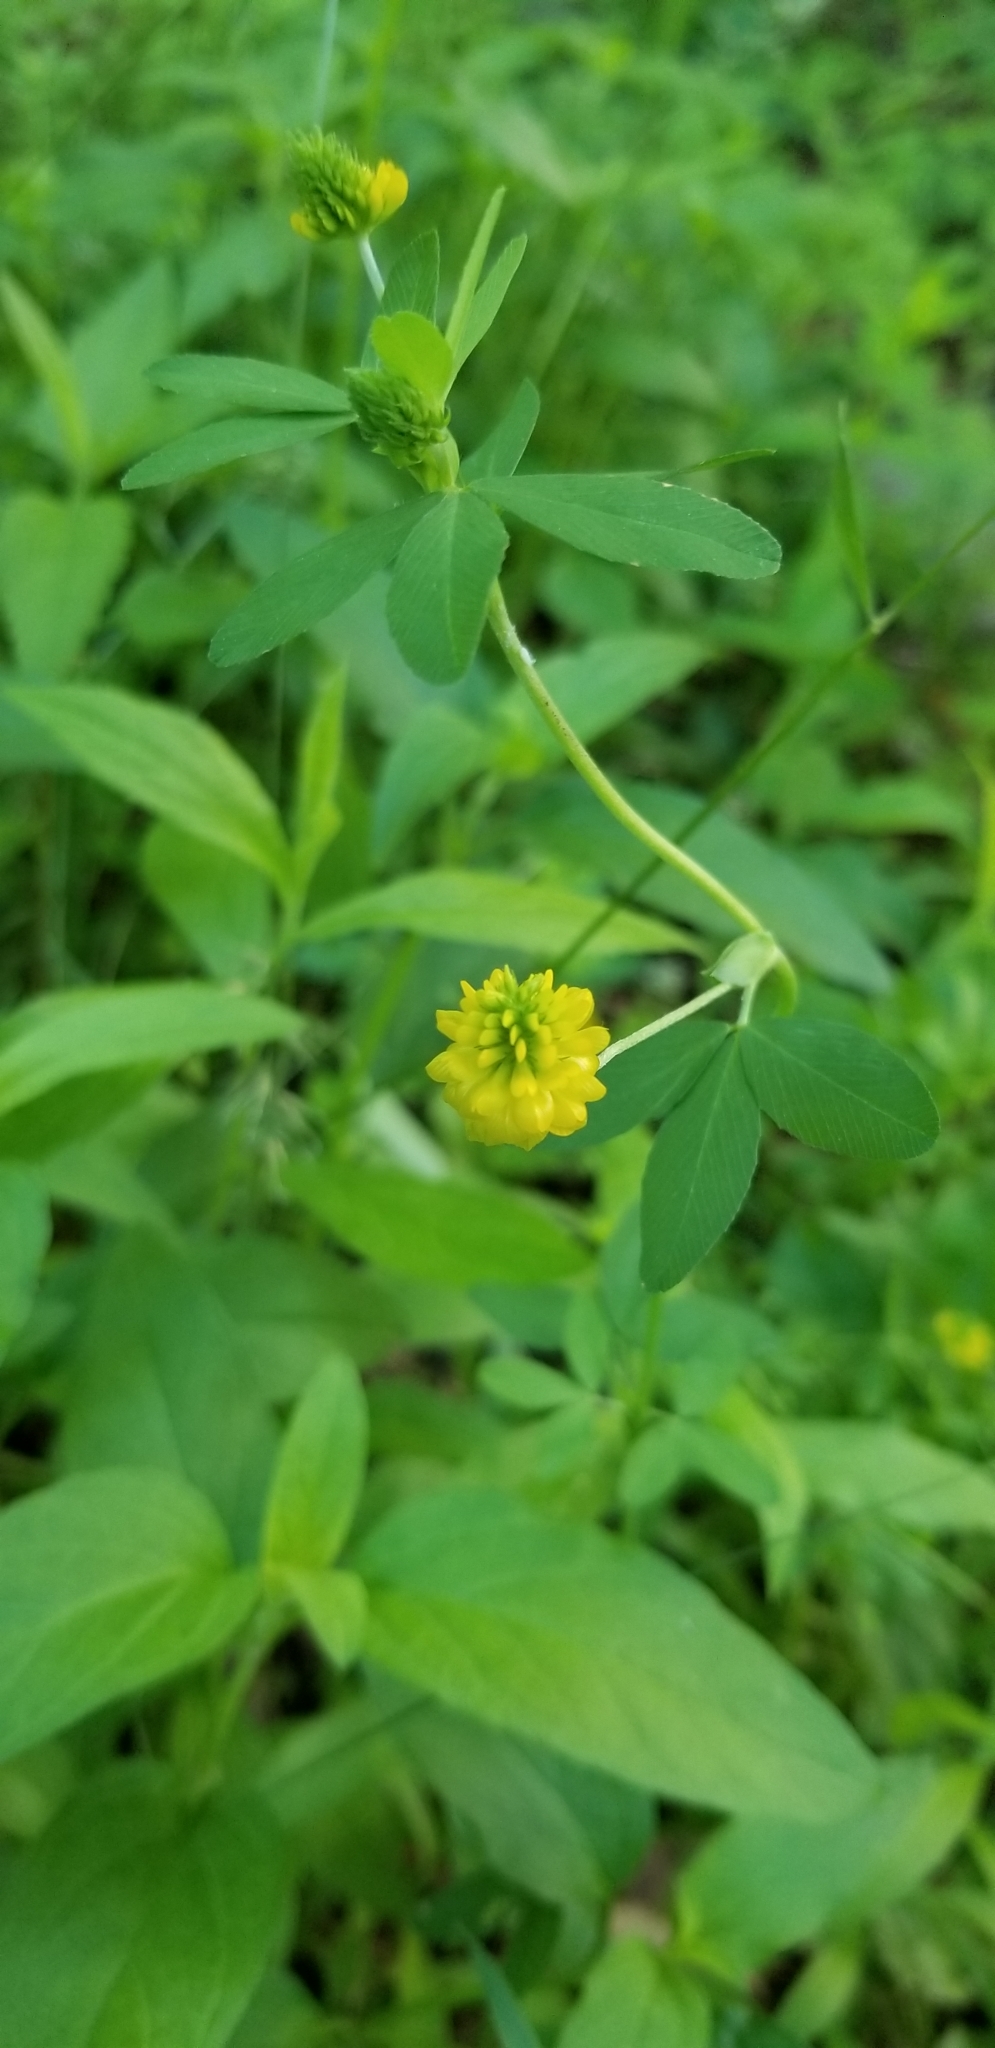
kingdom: Plantae
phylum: Tracheophyta
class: Magnoliopsida
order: Fabales
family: Fabaceae
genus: Medicago
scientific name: Medicago lupulina
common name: Black medick
